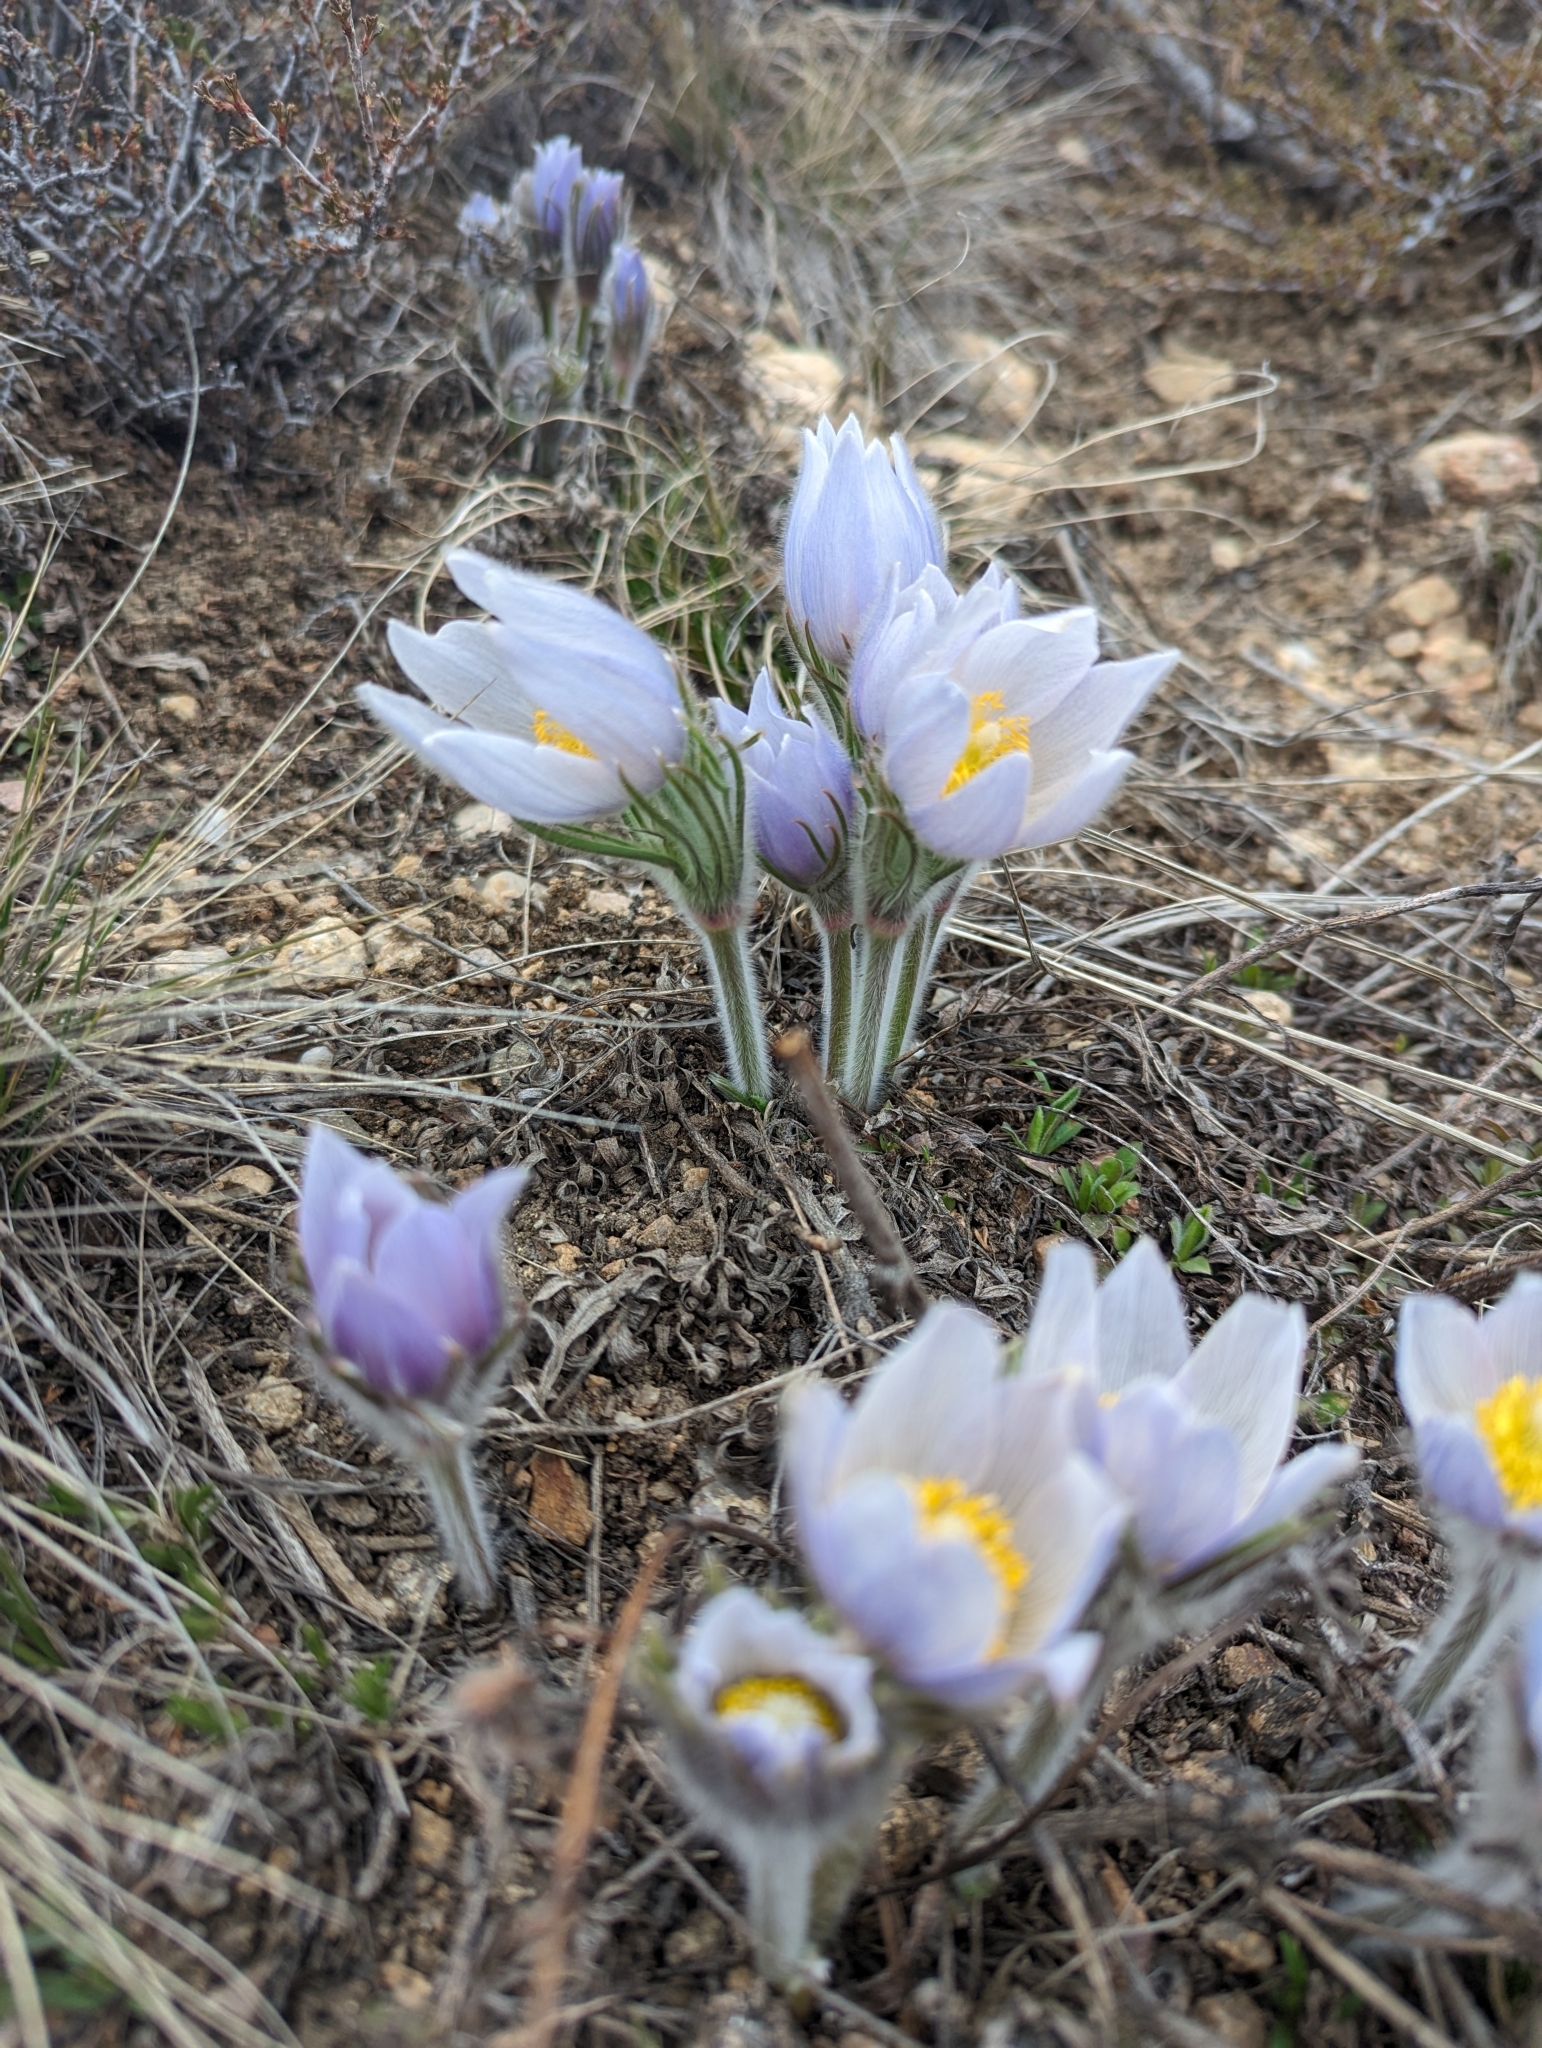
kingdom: Plantae
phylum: Tracheophyta
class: Magnoliopsida
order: Ranunculales
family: Ranunculaceae
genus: Pulsatilla
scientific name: Pulsatilla nuttalliana
